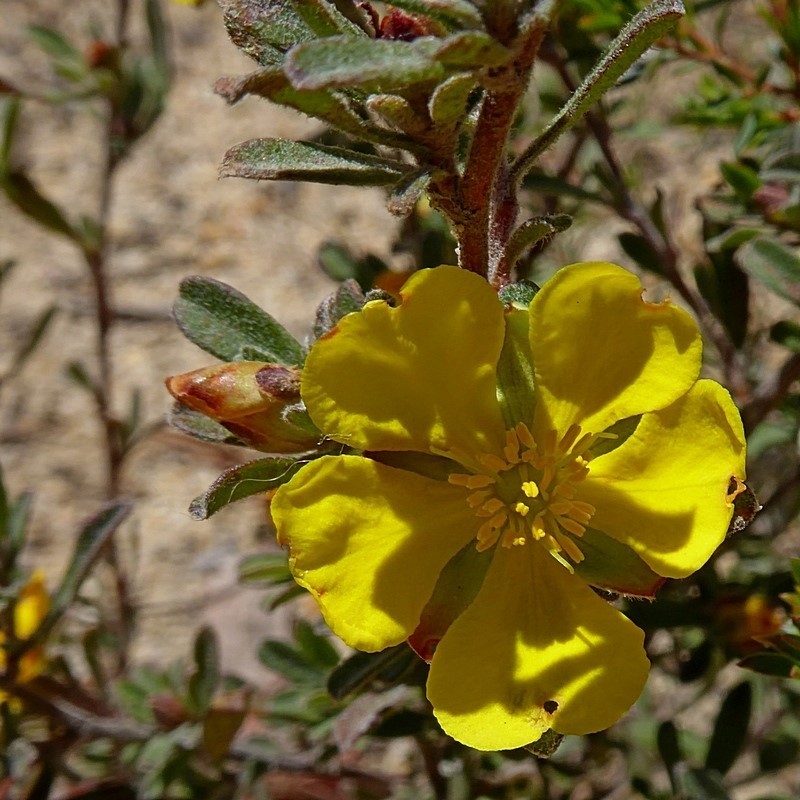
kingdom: Plantae
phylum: Tracheophyta
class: Magnoliopsida
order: Dilleniales
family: Dilleniaceae
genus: Hibbertia
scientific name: Hibbertia obtusifolia
